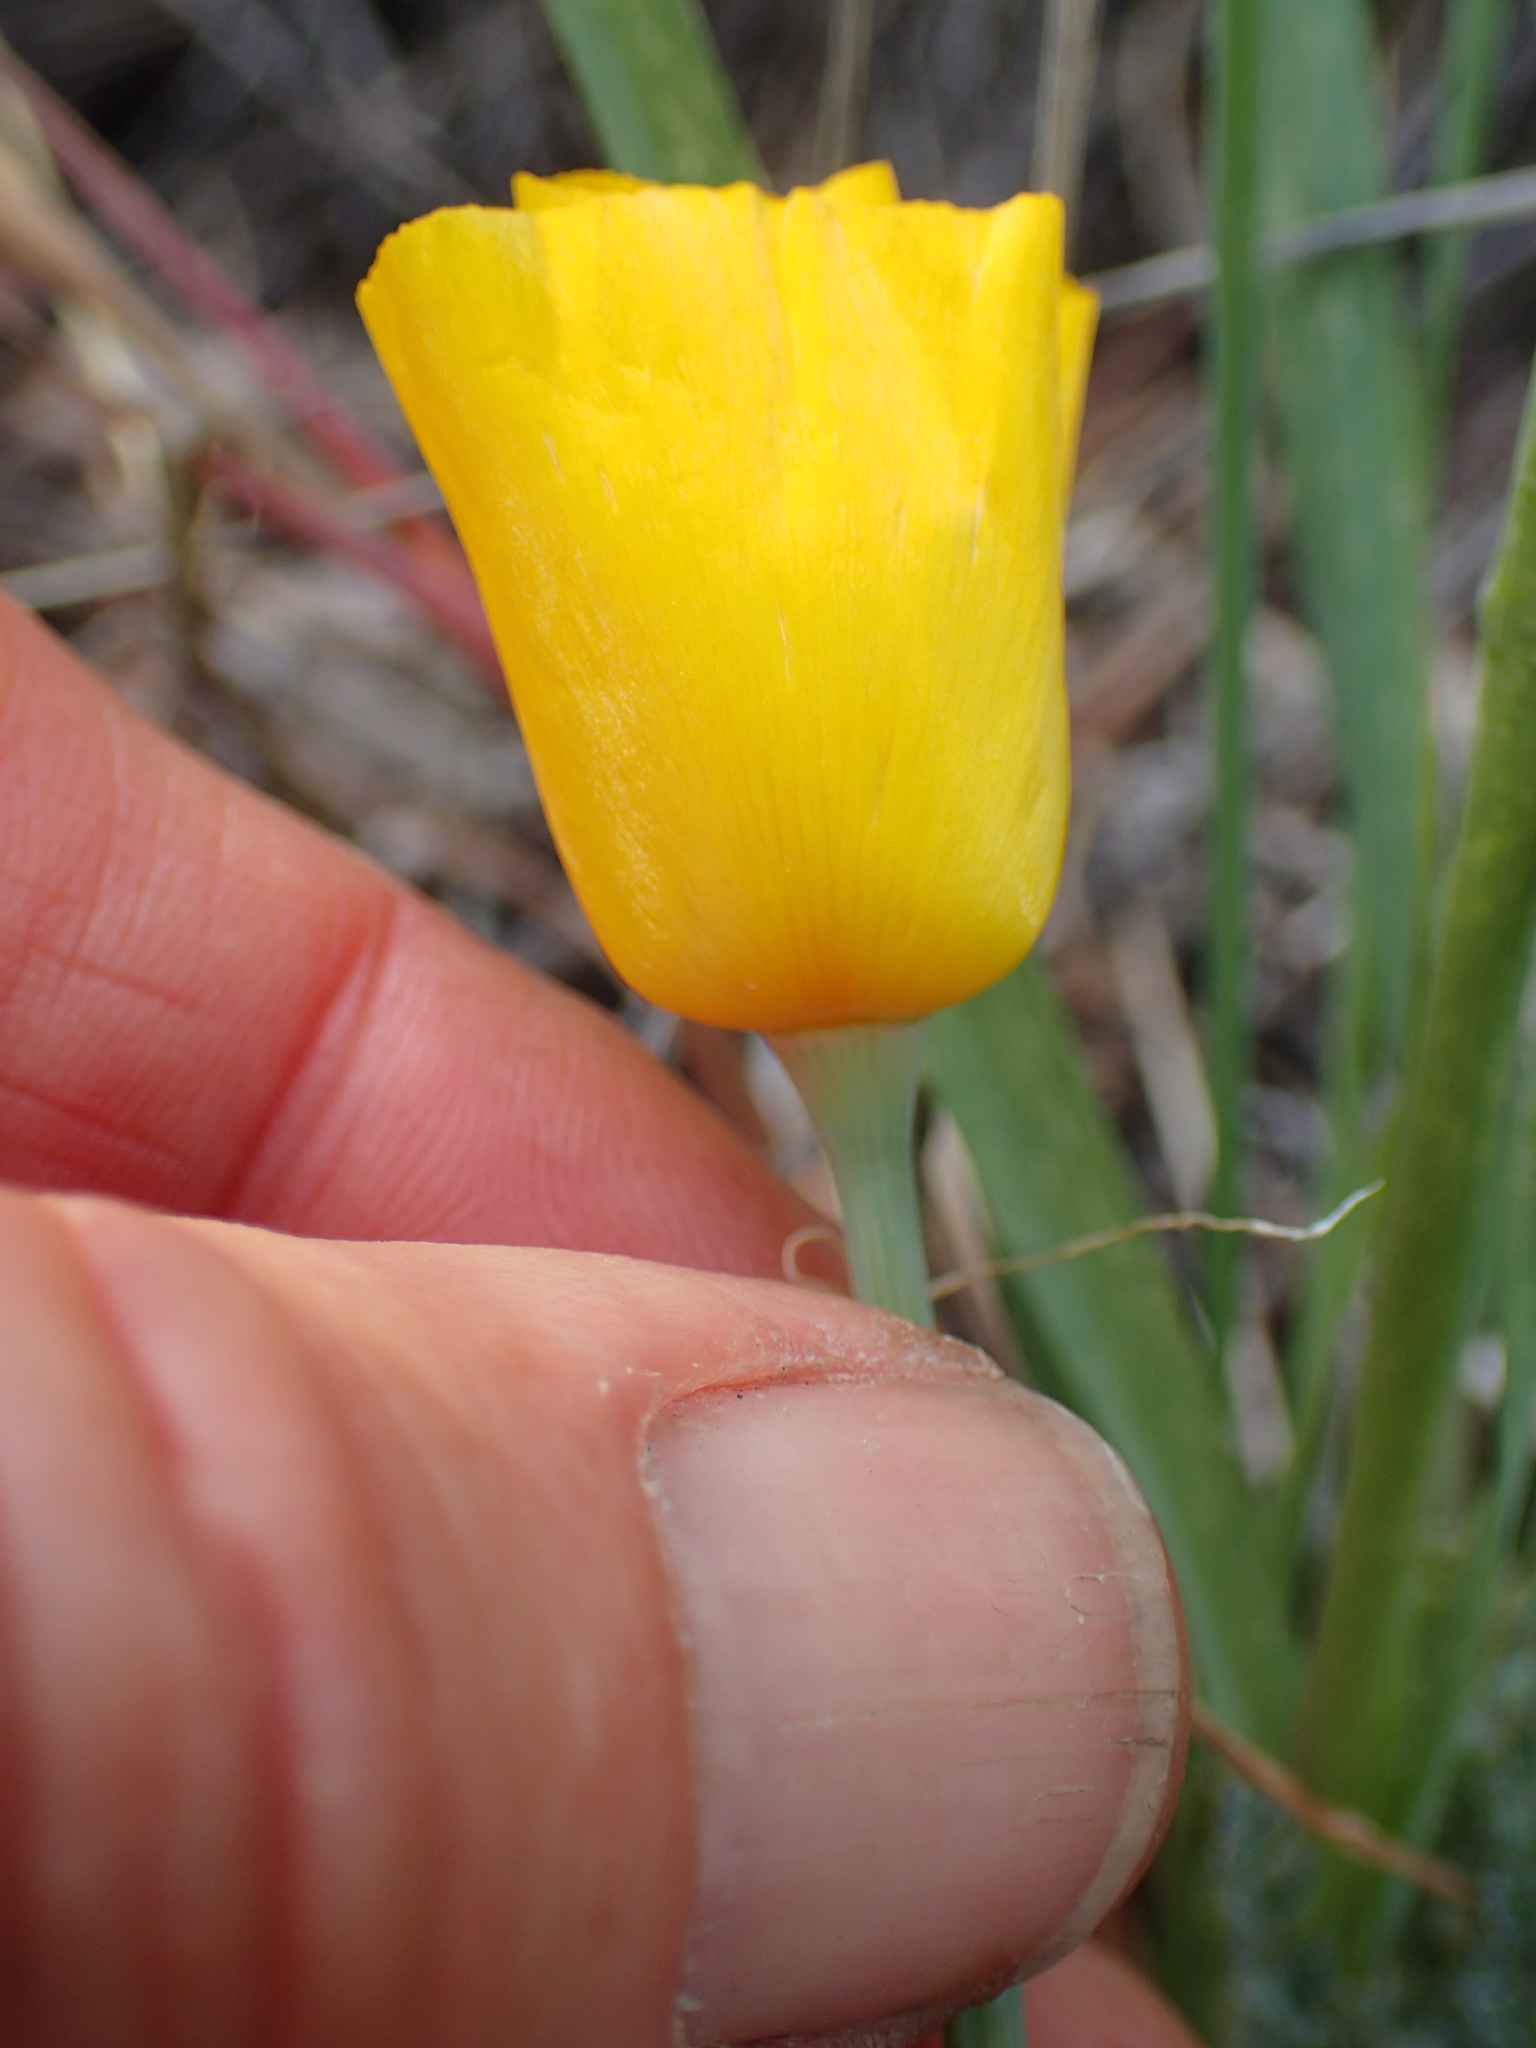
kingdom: Plantae
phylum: Tracheophyta
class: Magnoliopsida
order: Ranunculales
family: Papaveraceae
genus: Eschscholzia
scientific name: Eschscholzia caespitosa
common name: Tufted california-poppy
